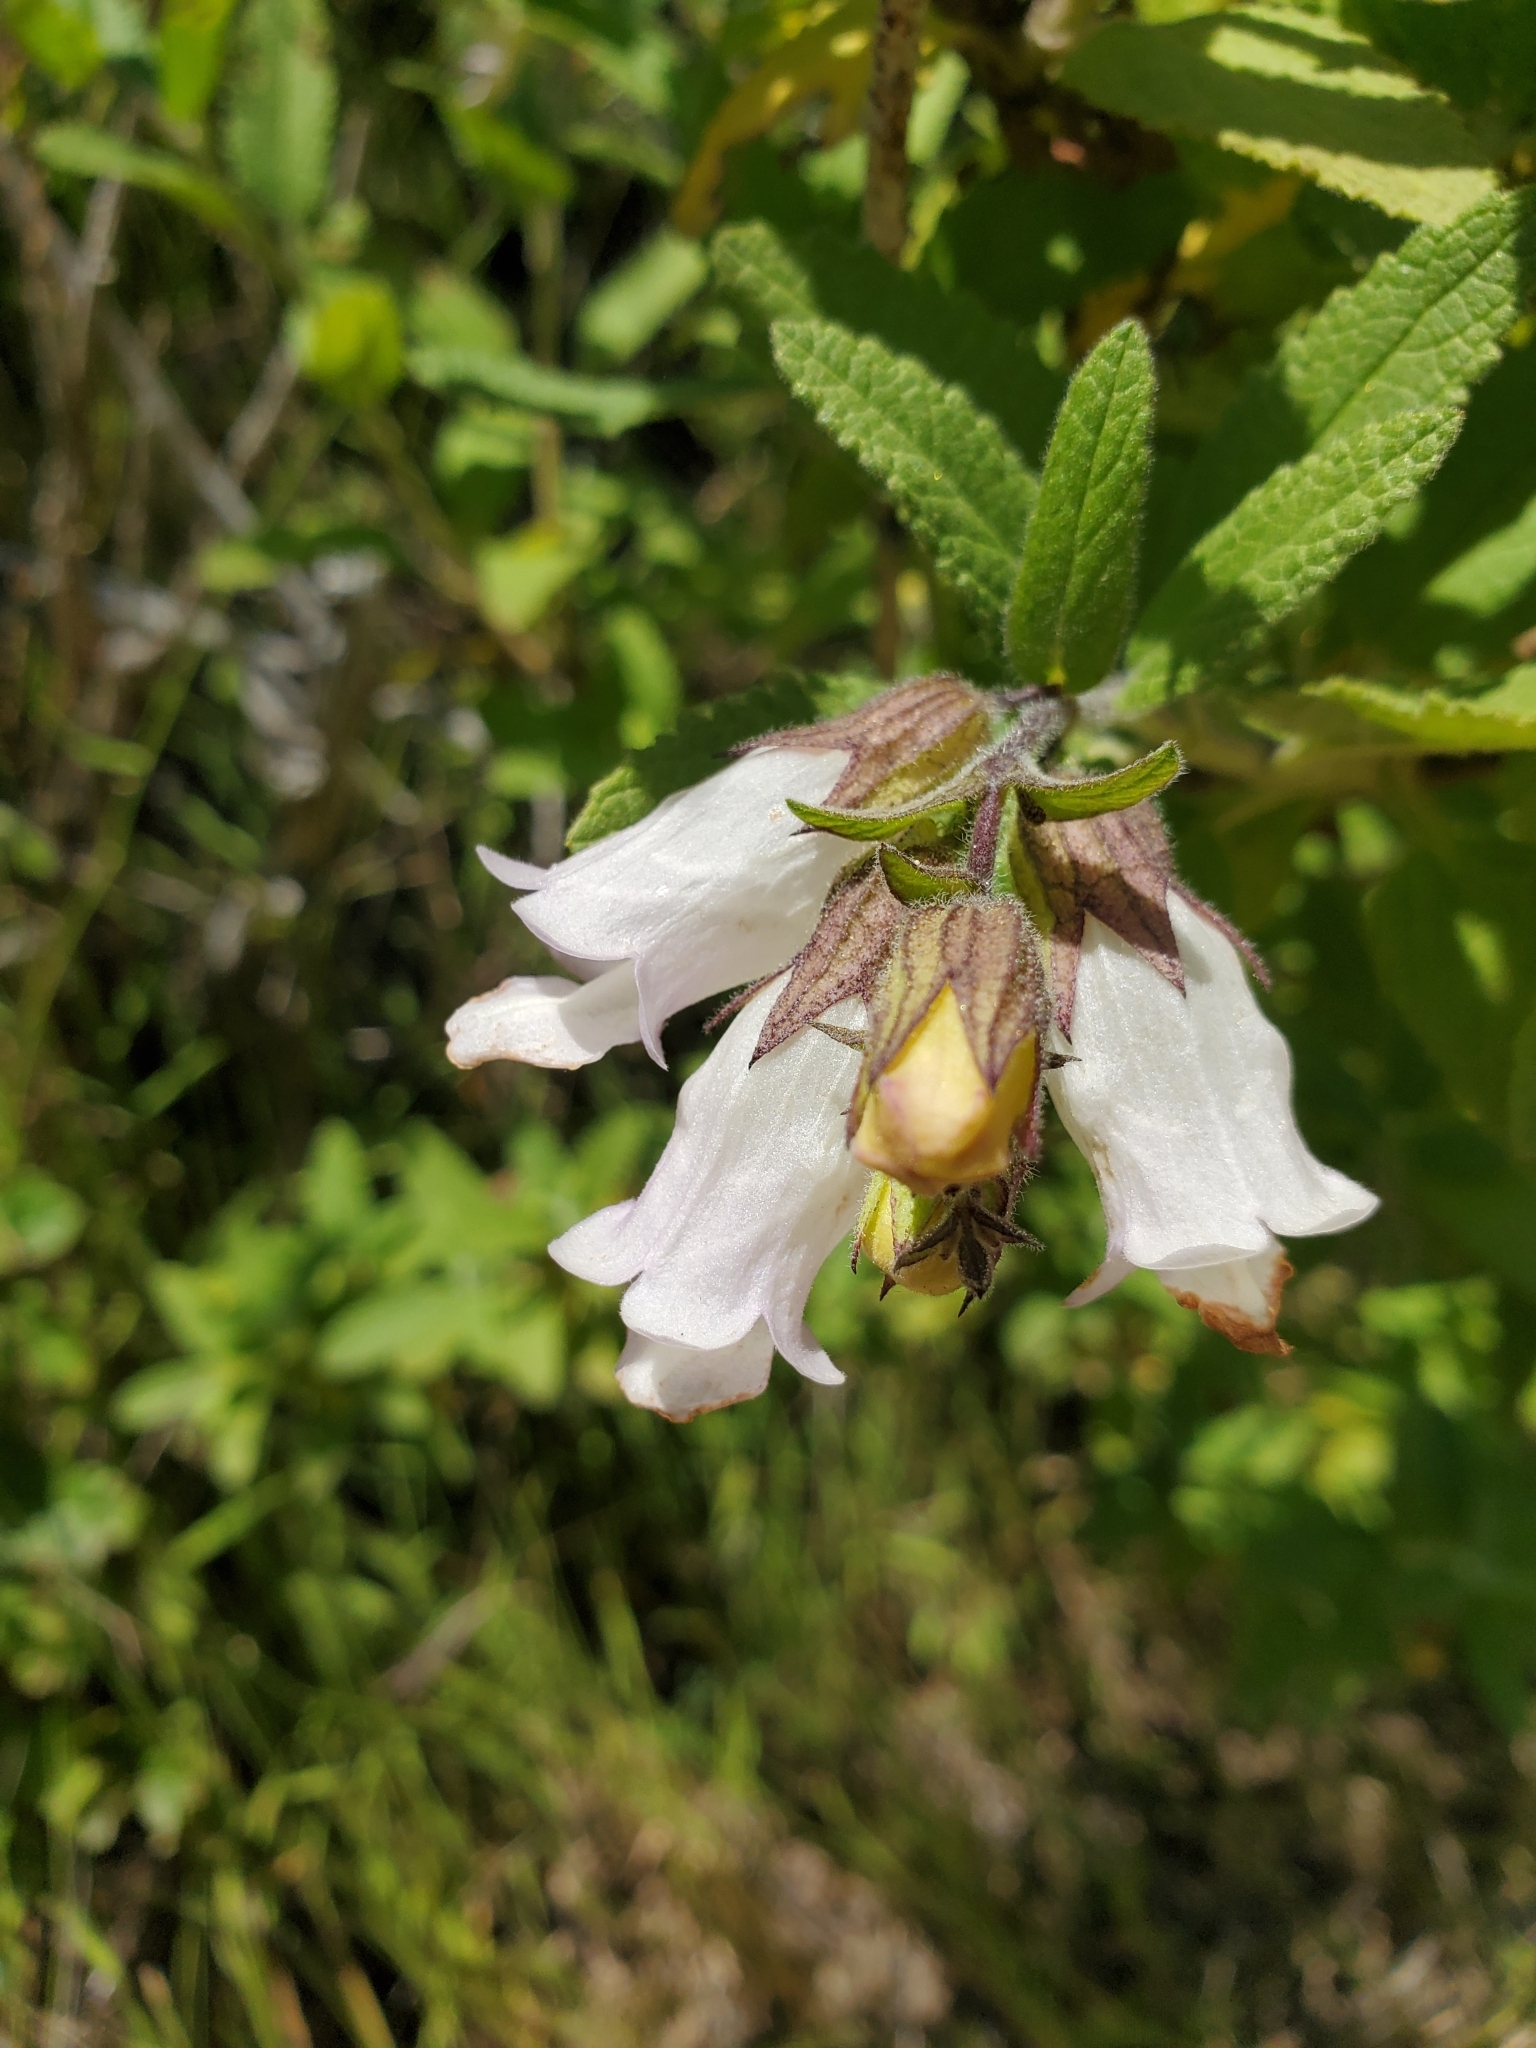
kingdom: Plantae
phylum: Tracheophyta
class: Magnoliopsida
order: Lamiales
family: Lamiaceae
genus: Lepechinia
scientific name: Lepechinia calycina
